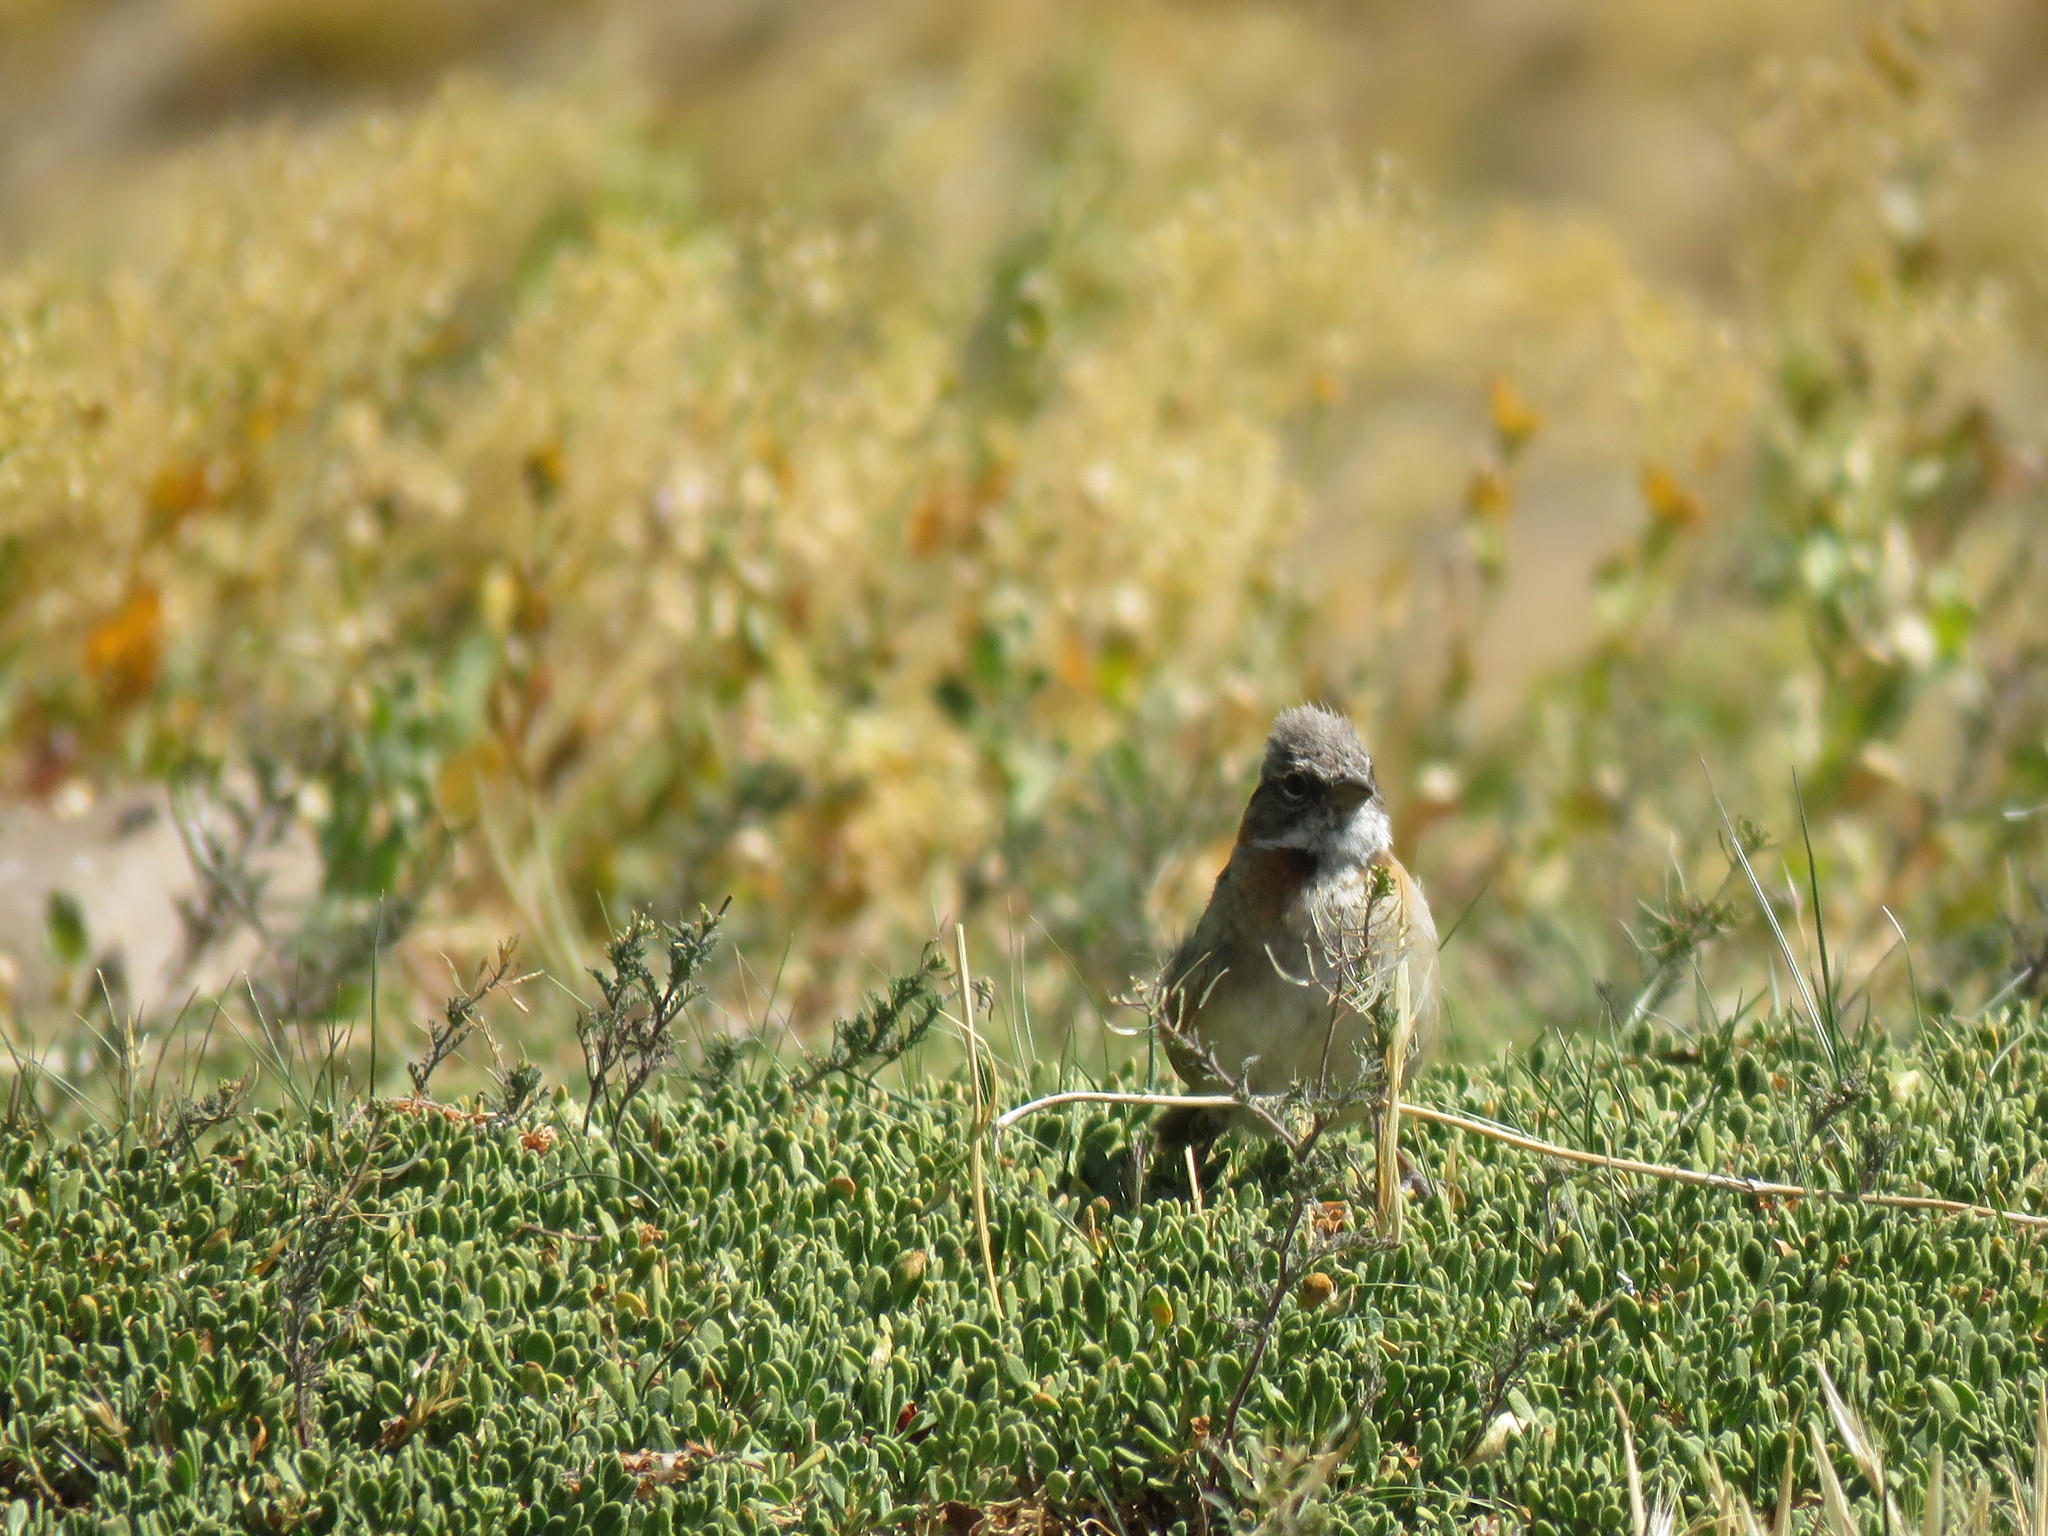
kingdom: Animalia
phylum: Chordata
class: Aves
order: Passeriformes
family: Passerellidae
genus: Zonotrichia
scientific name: Zonotrichia capensis
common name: Rufous-collared sparrow
